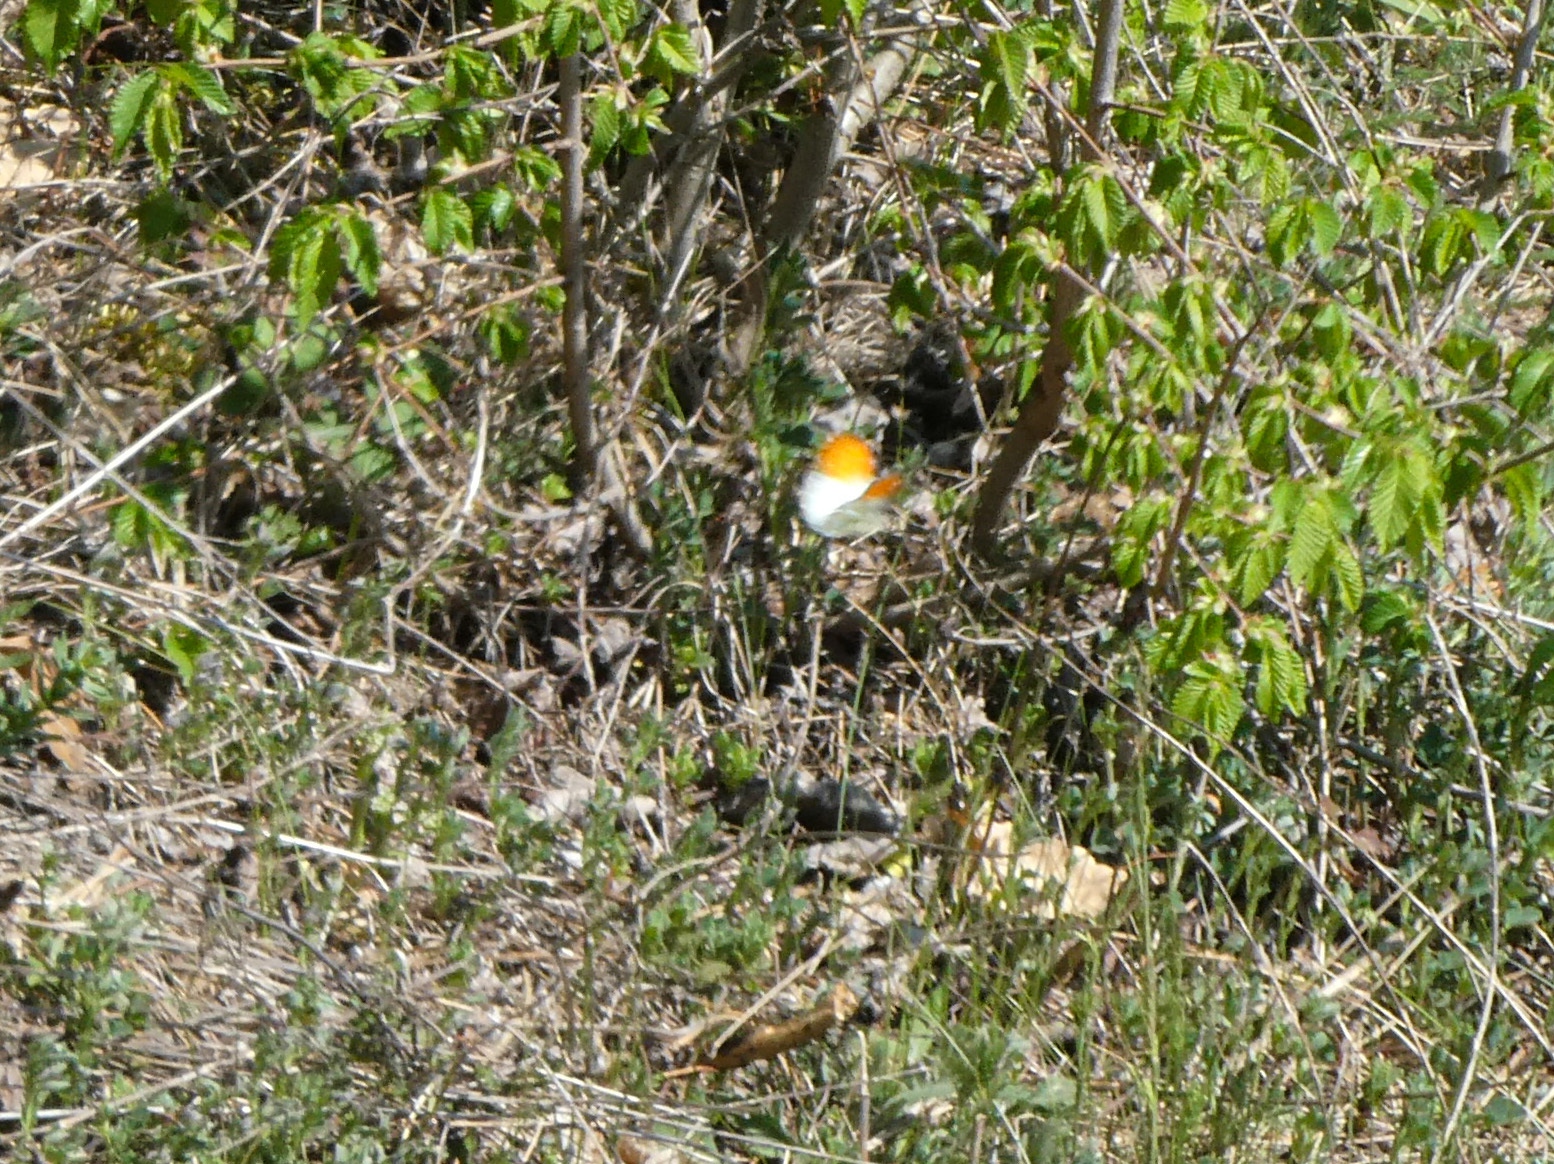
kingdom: Animalia
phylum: Arthropoda
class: Insecta
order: Lepidoptera
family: Pieridae
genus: Anthocharis
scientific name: Anthocharis cardamines
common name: Orange-tip
